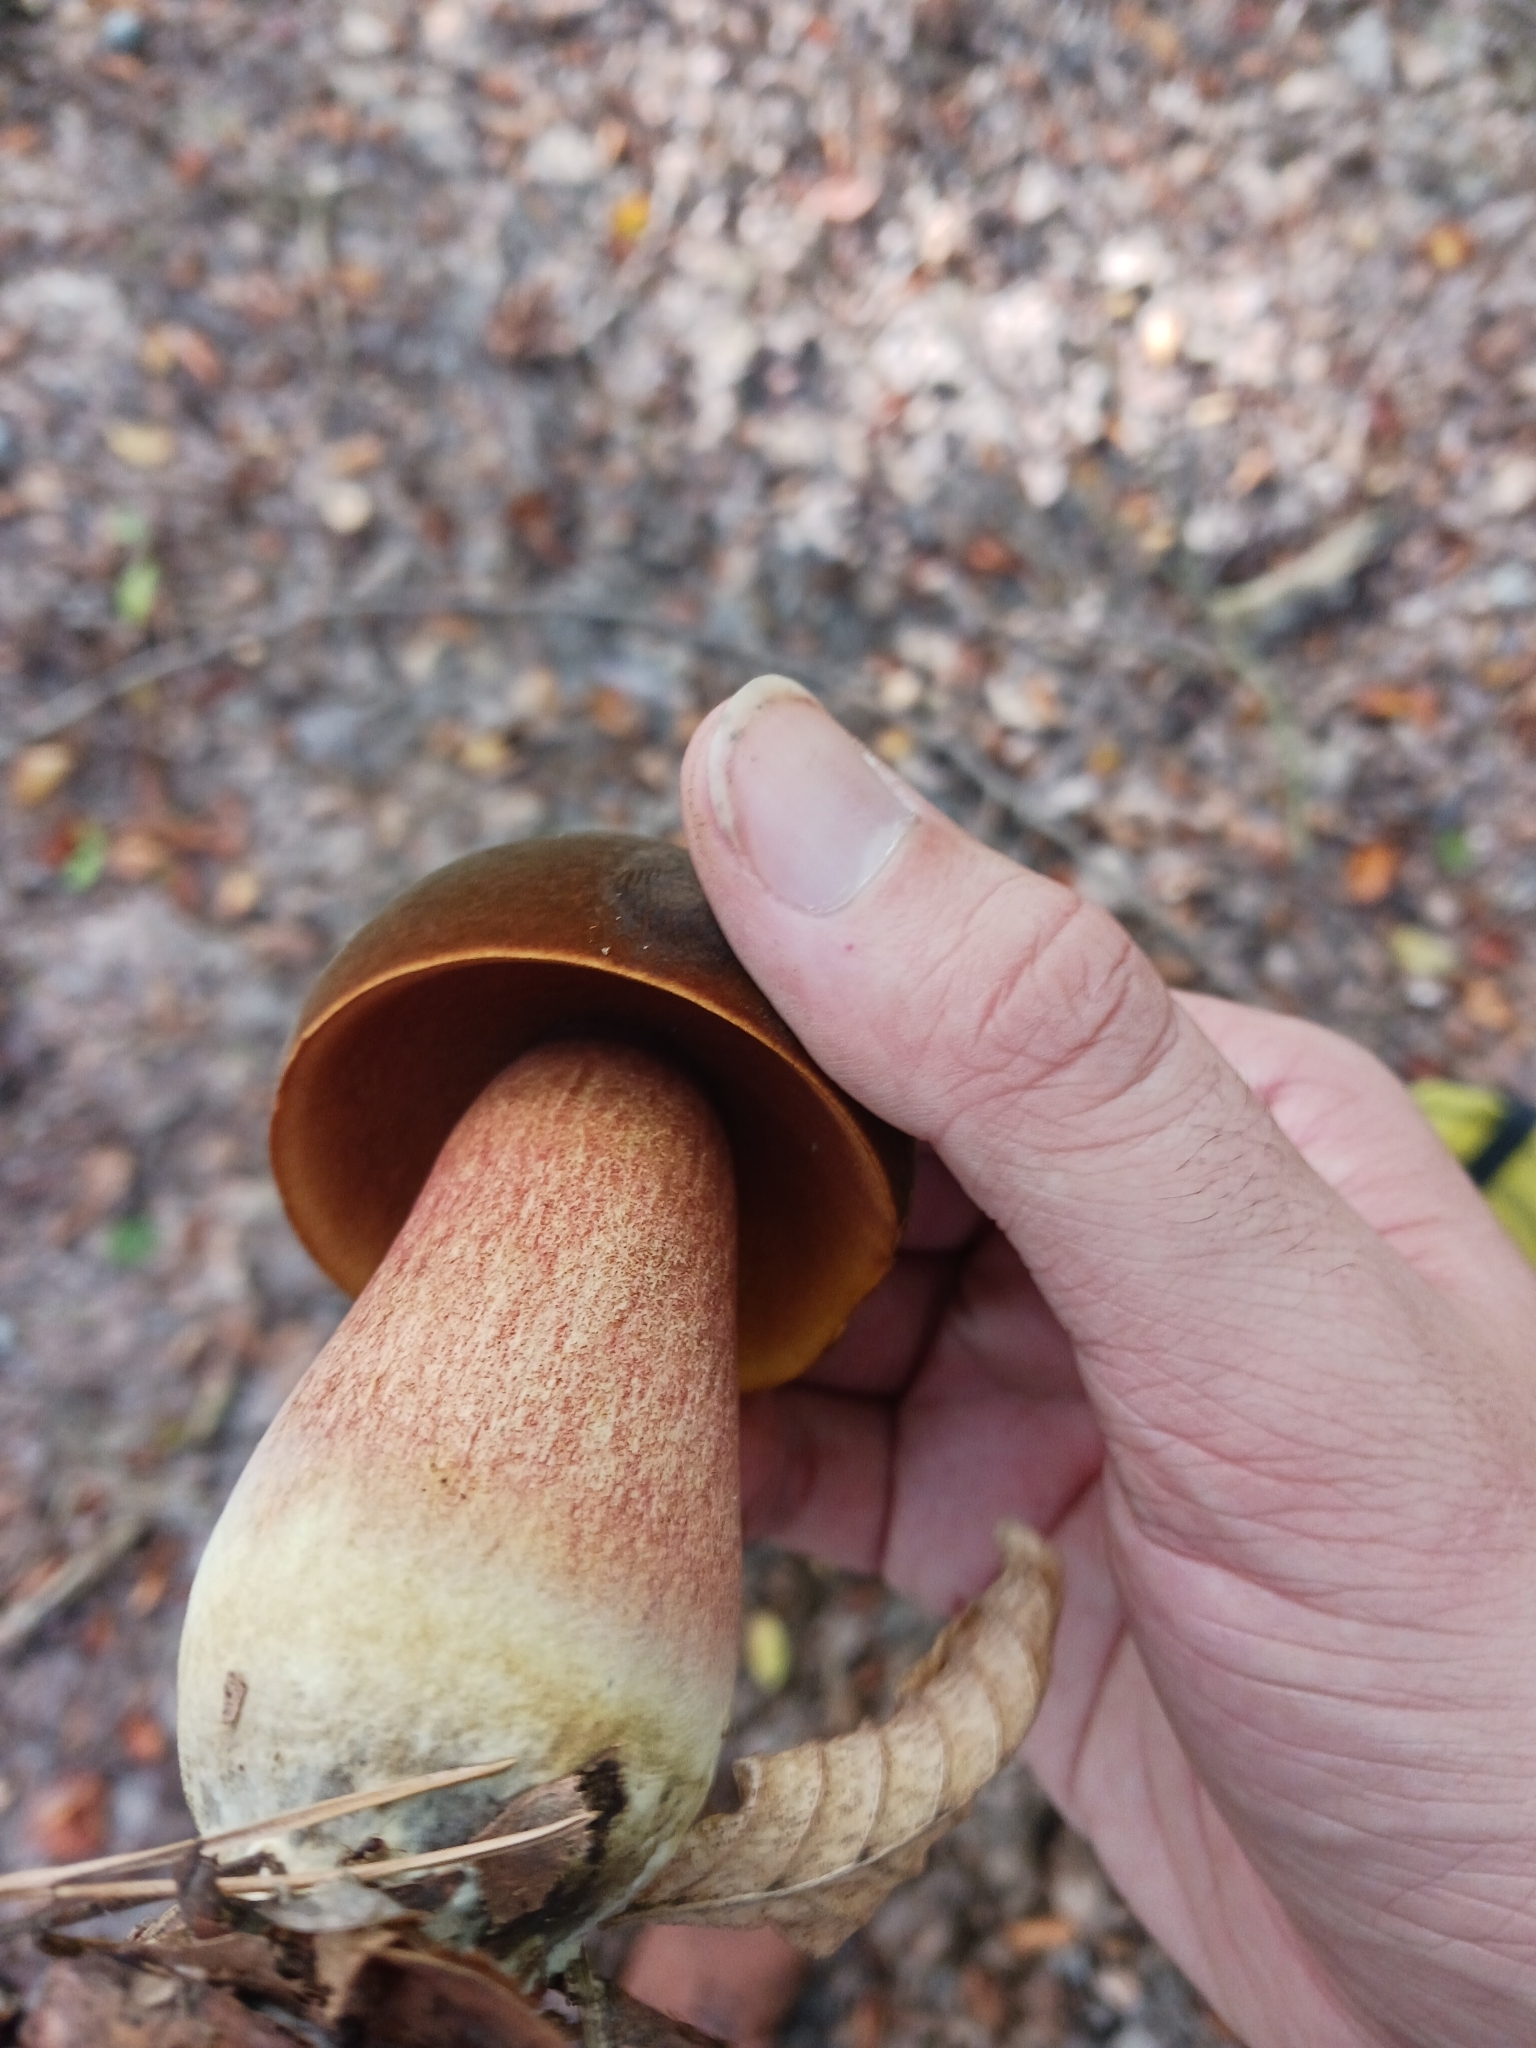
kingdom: Fungi
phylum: Basidiomycota
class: Agaricomycetes
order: Boletales
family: Boletaceae
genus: Neoboletus
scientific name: Neoboletus erythropus
